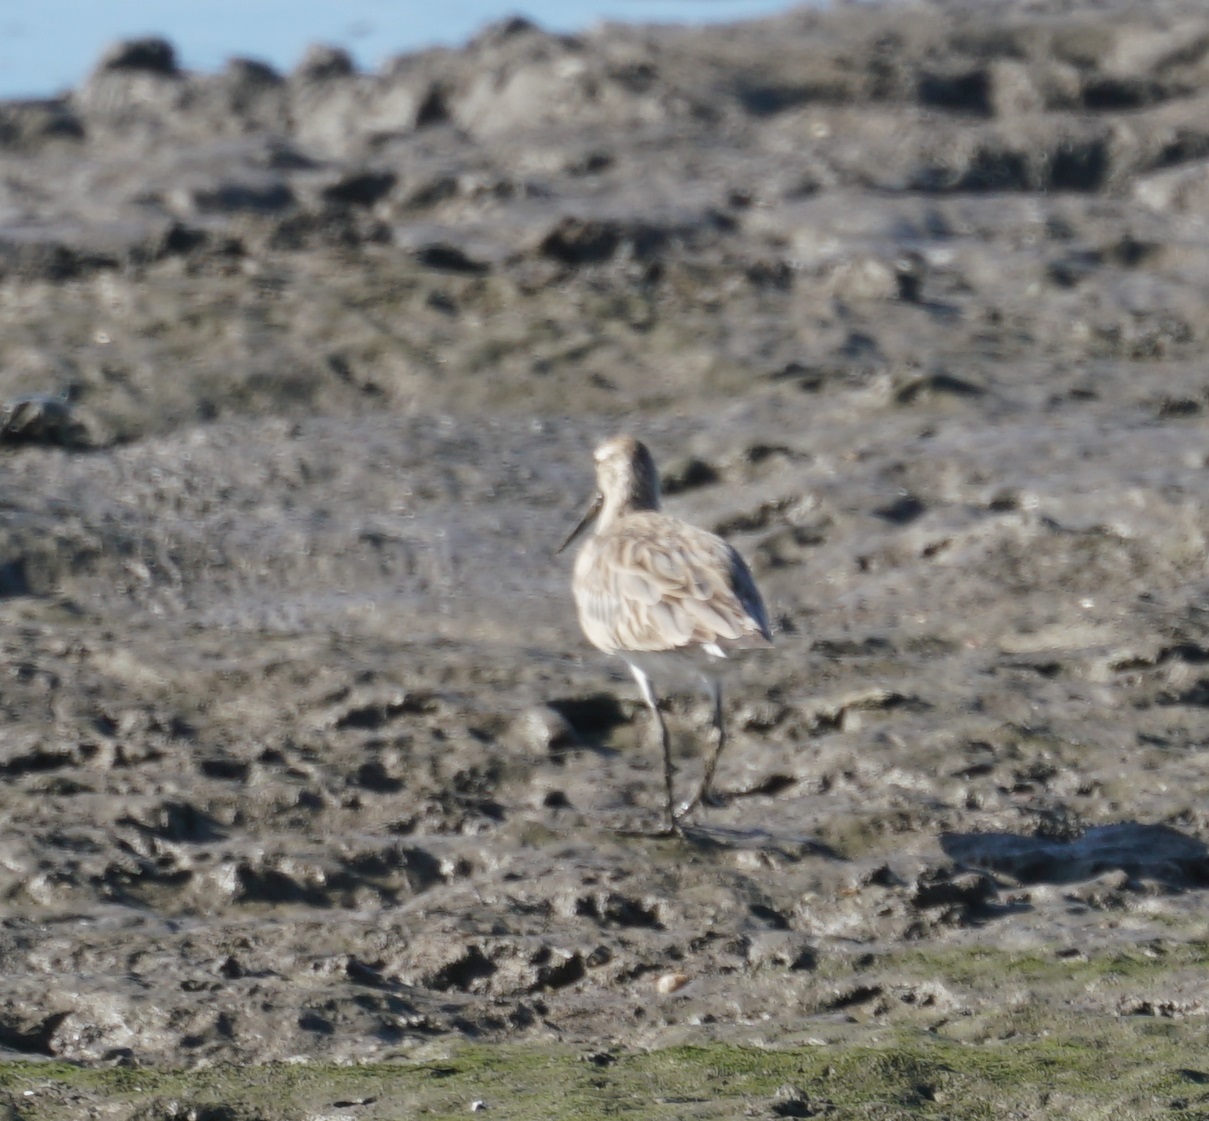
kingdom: Animalia
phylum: Chordata
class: Aves
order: Charadriiformes
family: Scolopacidae
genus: Limosa
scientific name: Limosa lapponica
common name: Bar-tailed godwit
